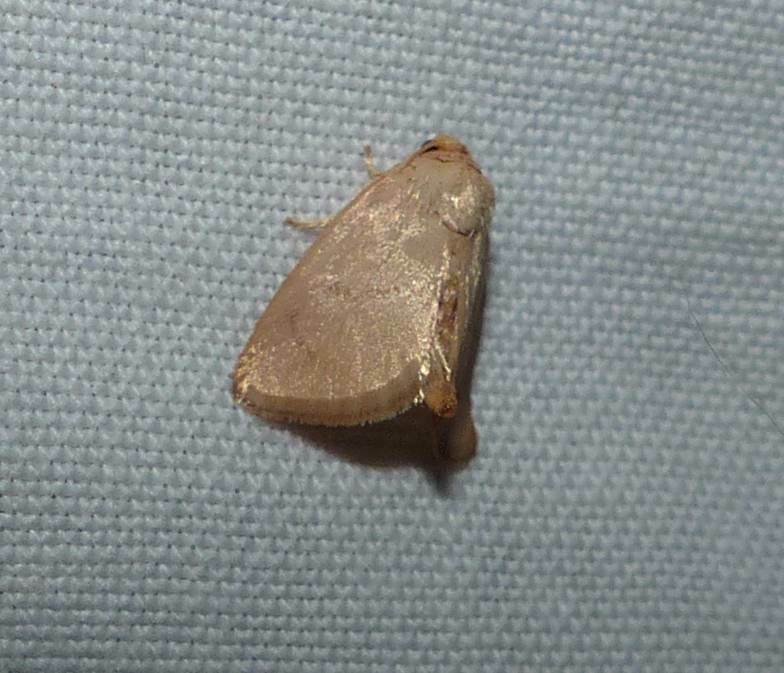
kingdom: Animalia
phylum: Arthropoda
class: Insecta
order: Lepidoptera
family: Limacodidae
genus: Tortricidia
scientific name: Tortricidia pallida
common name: Red-crossed button slug moth
